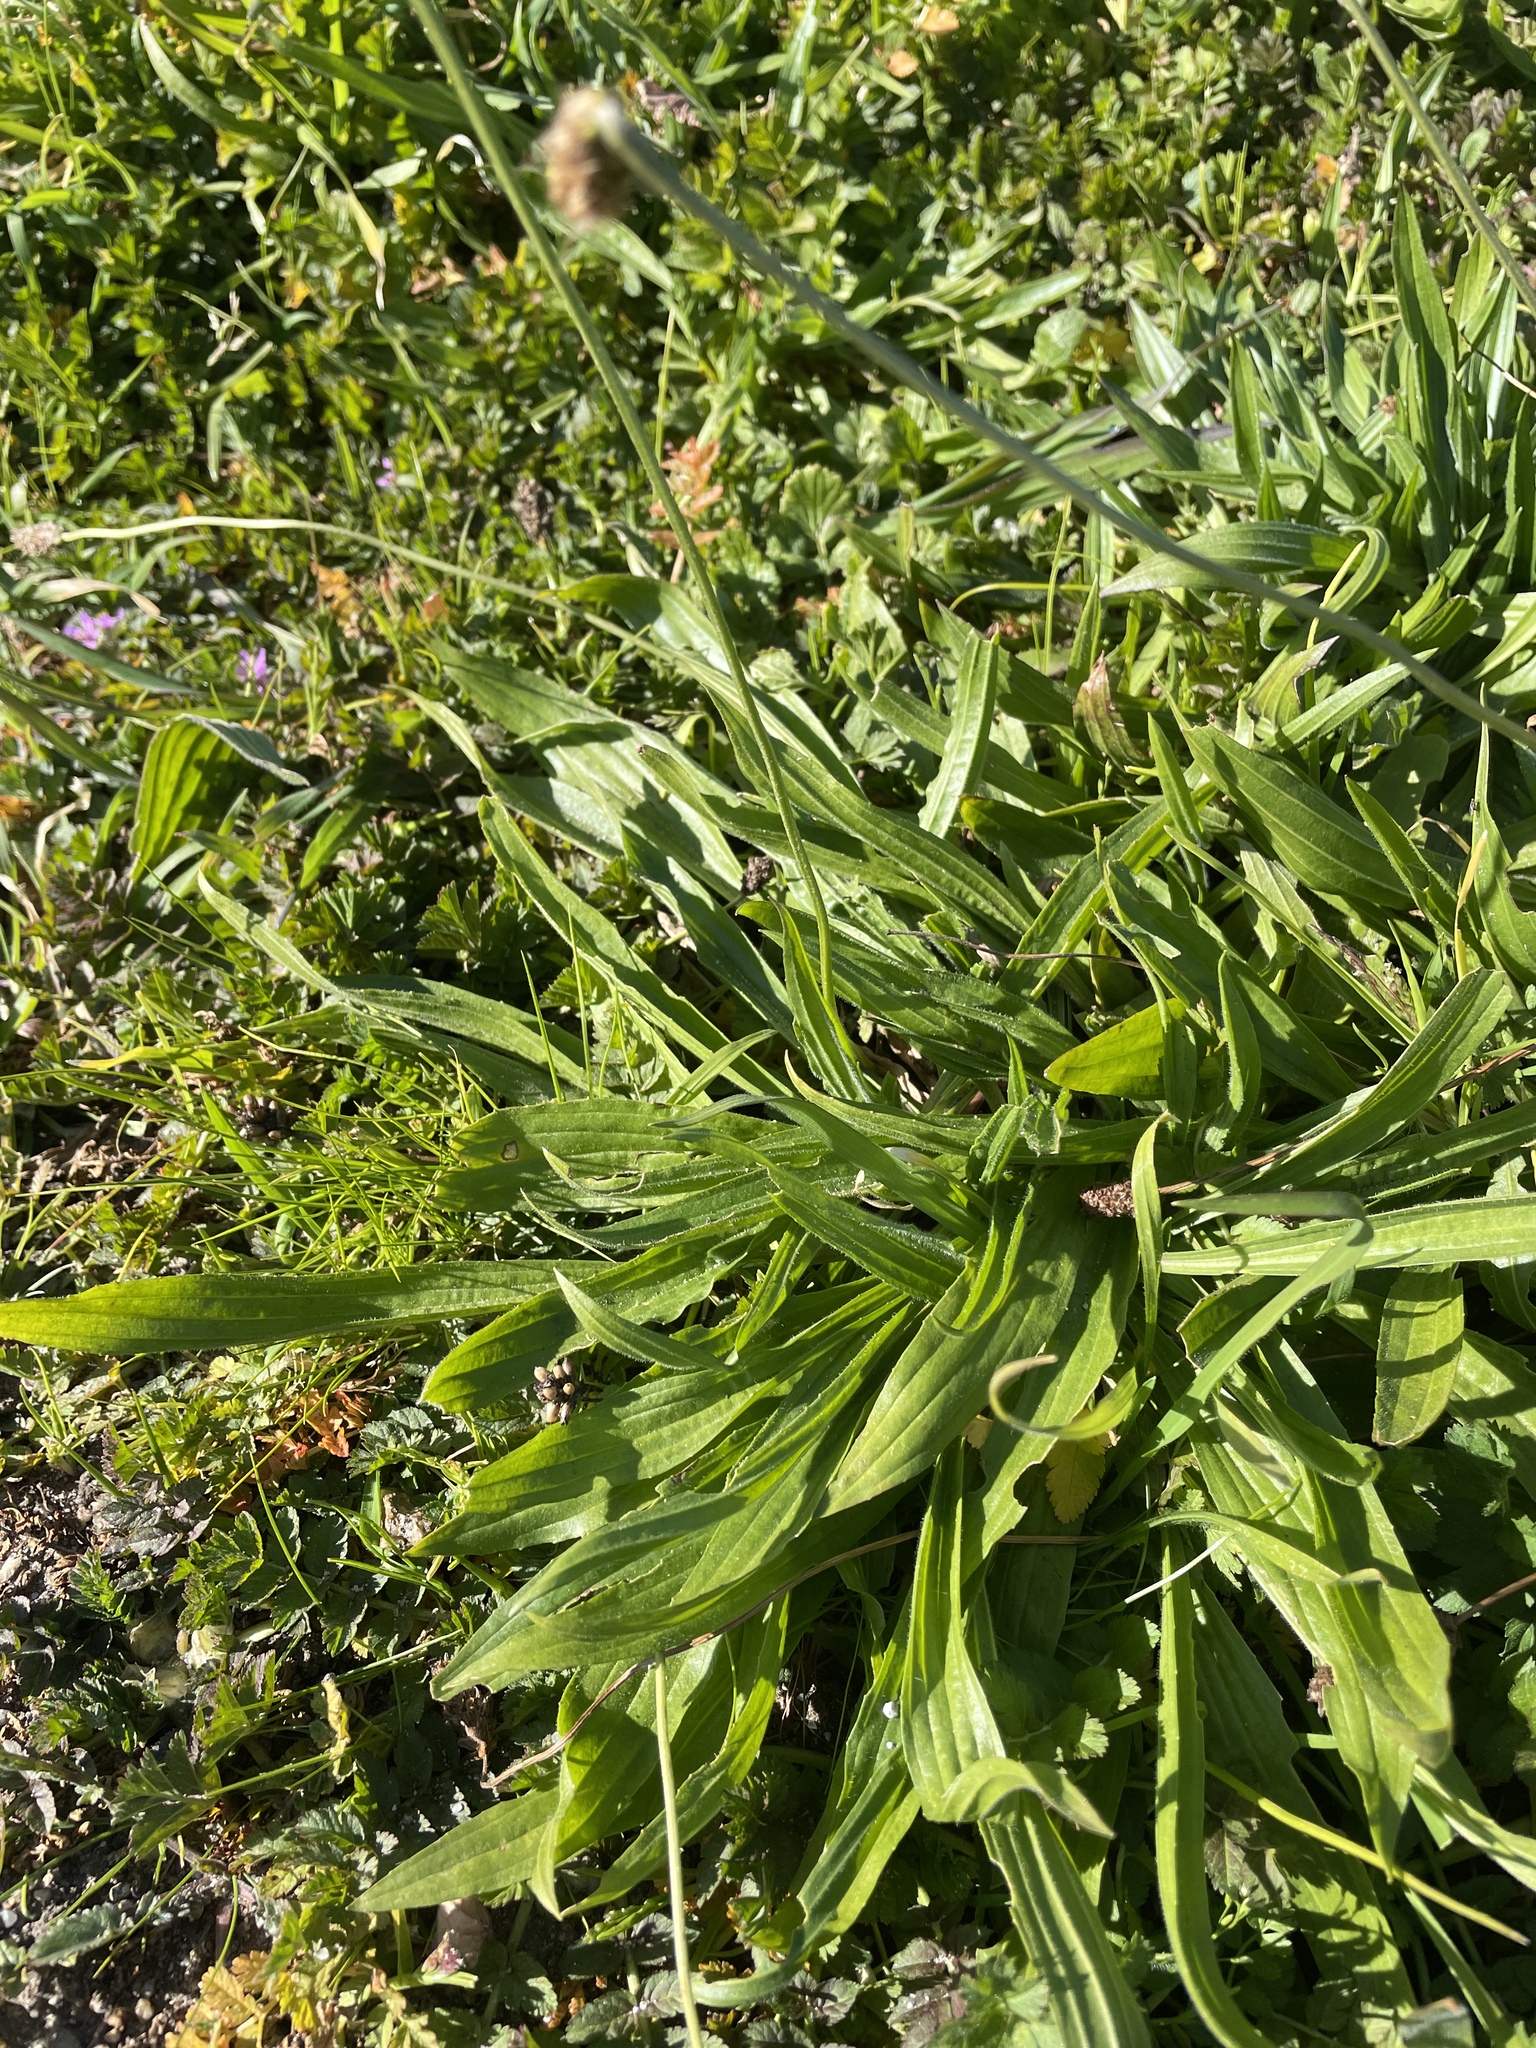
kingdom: Plantae
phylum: Tracheophyta
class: Magnoliopsida
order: Lamiales
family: Plantaginaceae
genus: Plantago
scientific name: Plantago lanceolata
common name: Ribwort plantain
